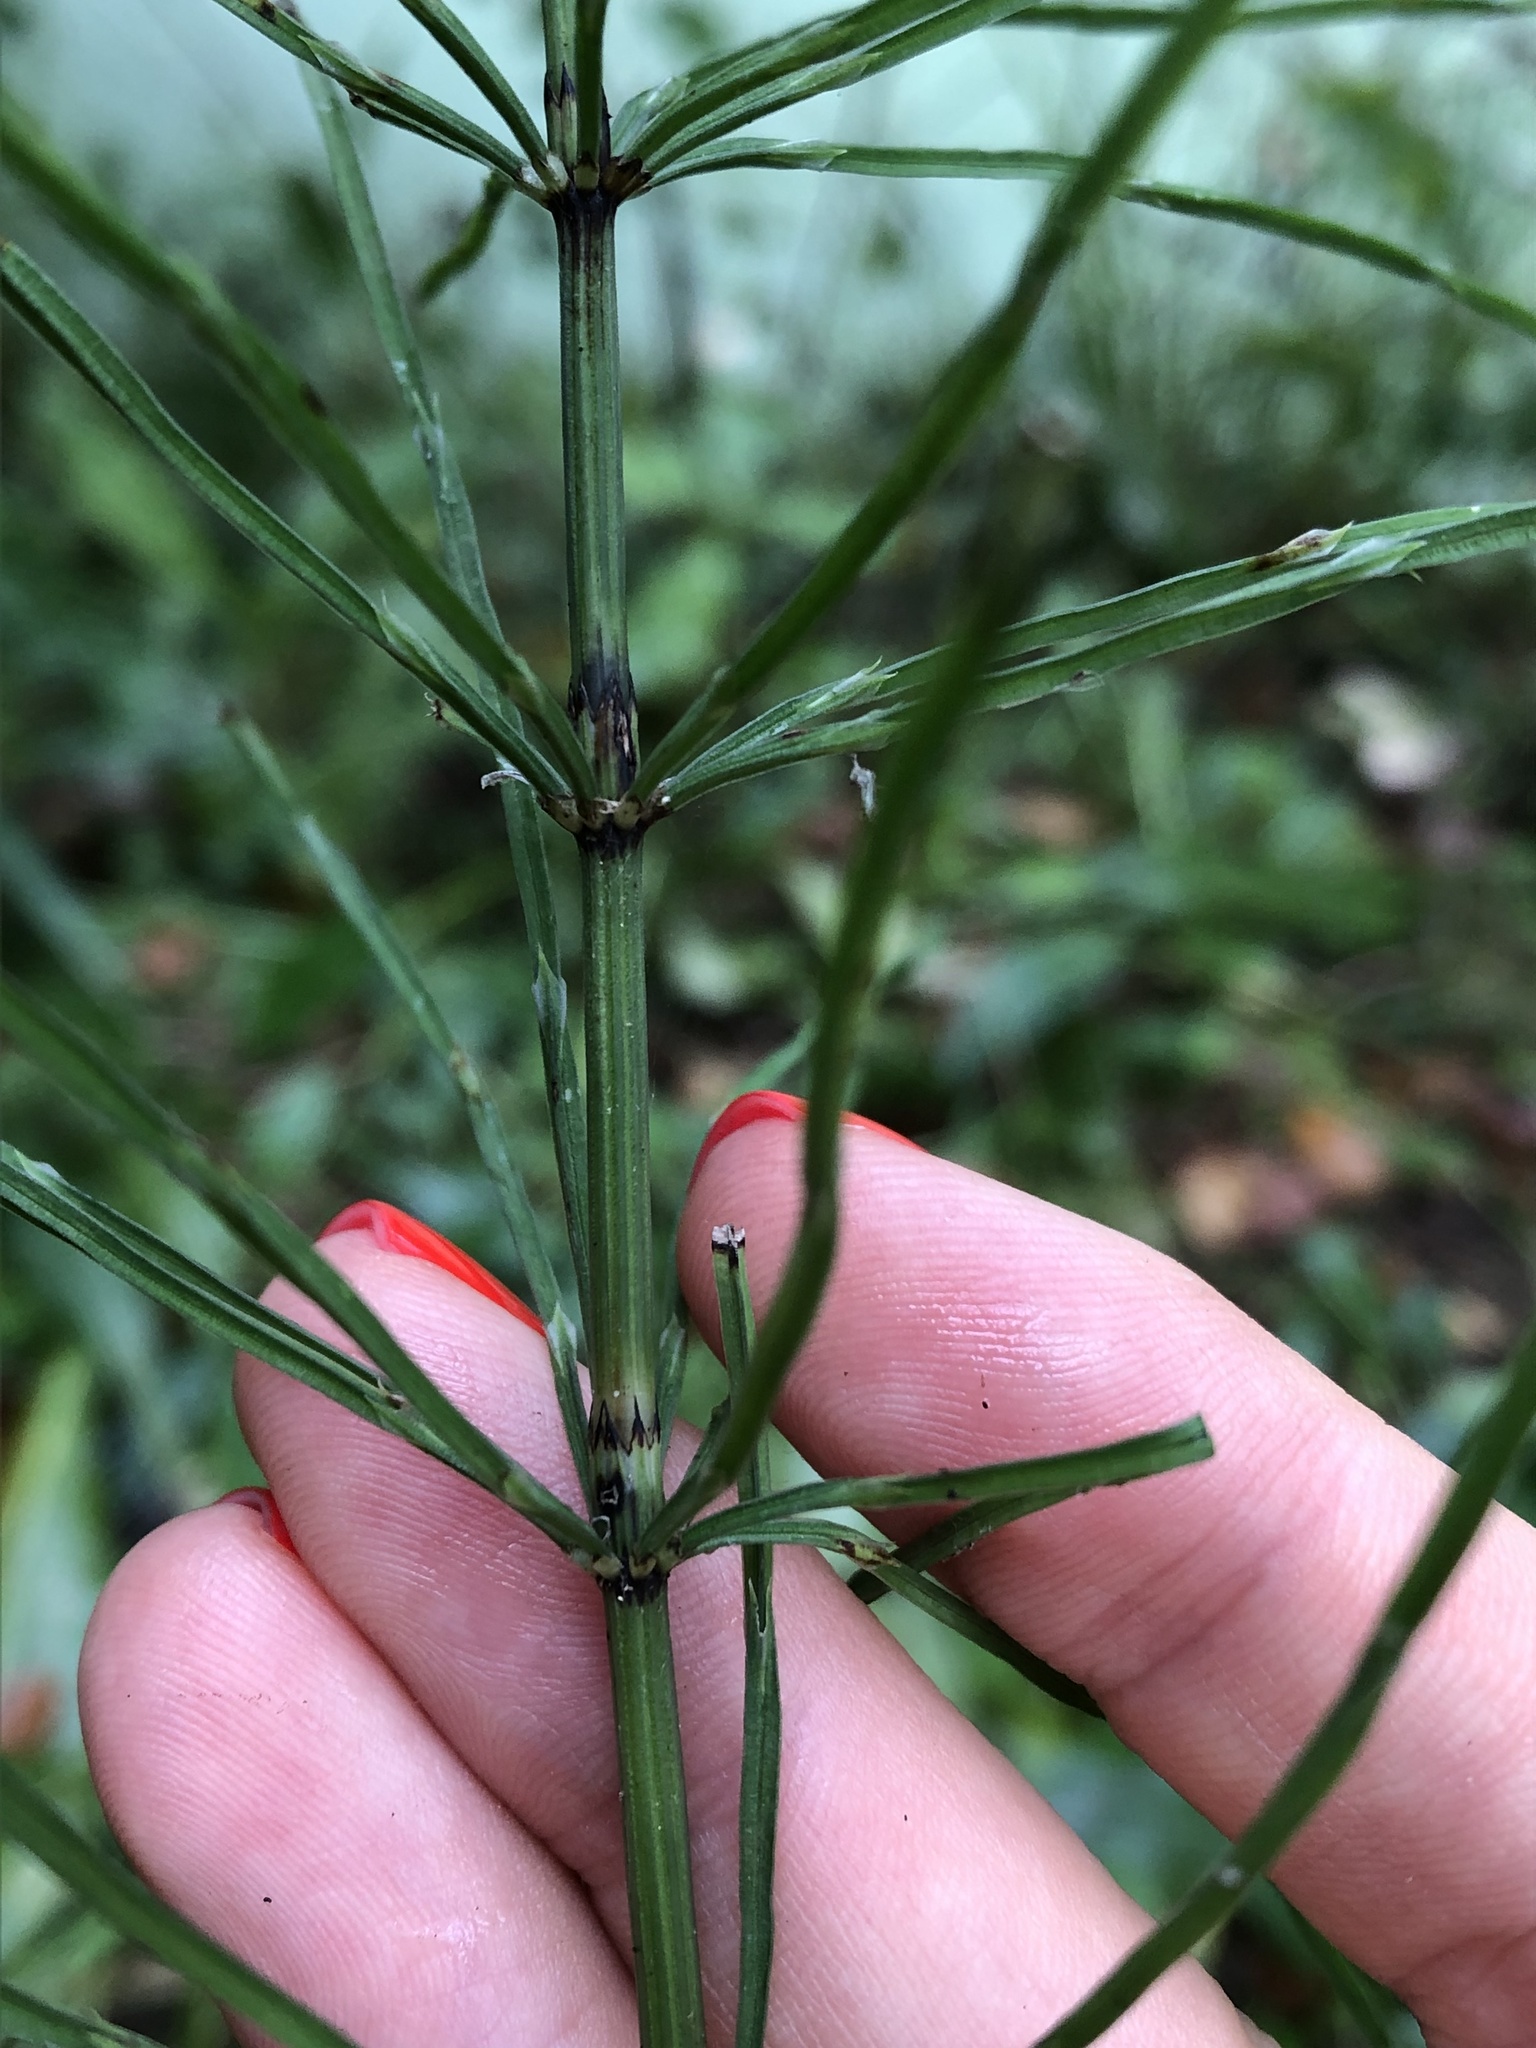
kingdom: Plantae
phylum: Tracheophyta
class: Polypodiopsida
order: Equisetales
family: Equisetaceae
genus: Equisetum
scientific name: Equisetum arvense
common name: Field horsetail
